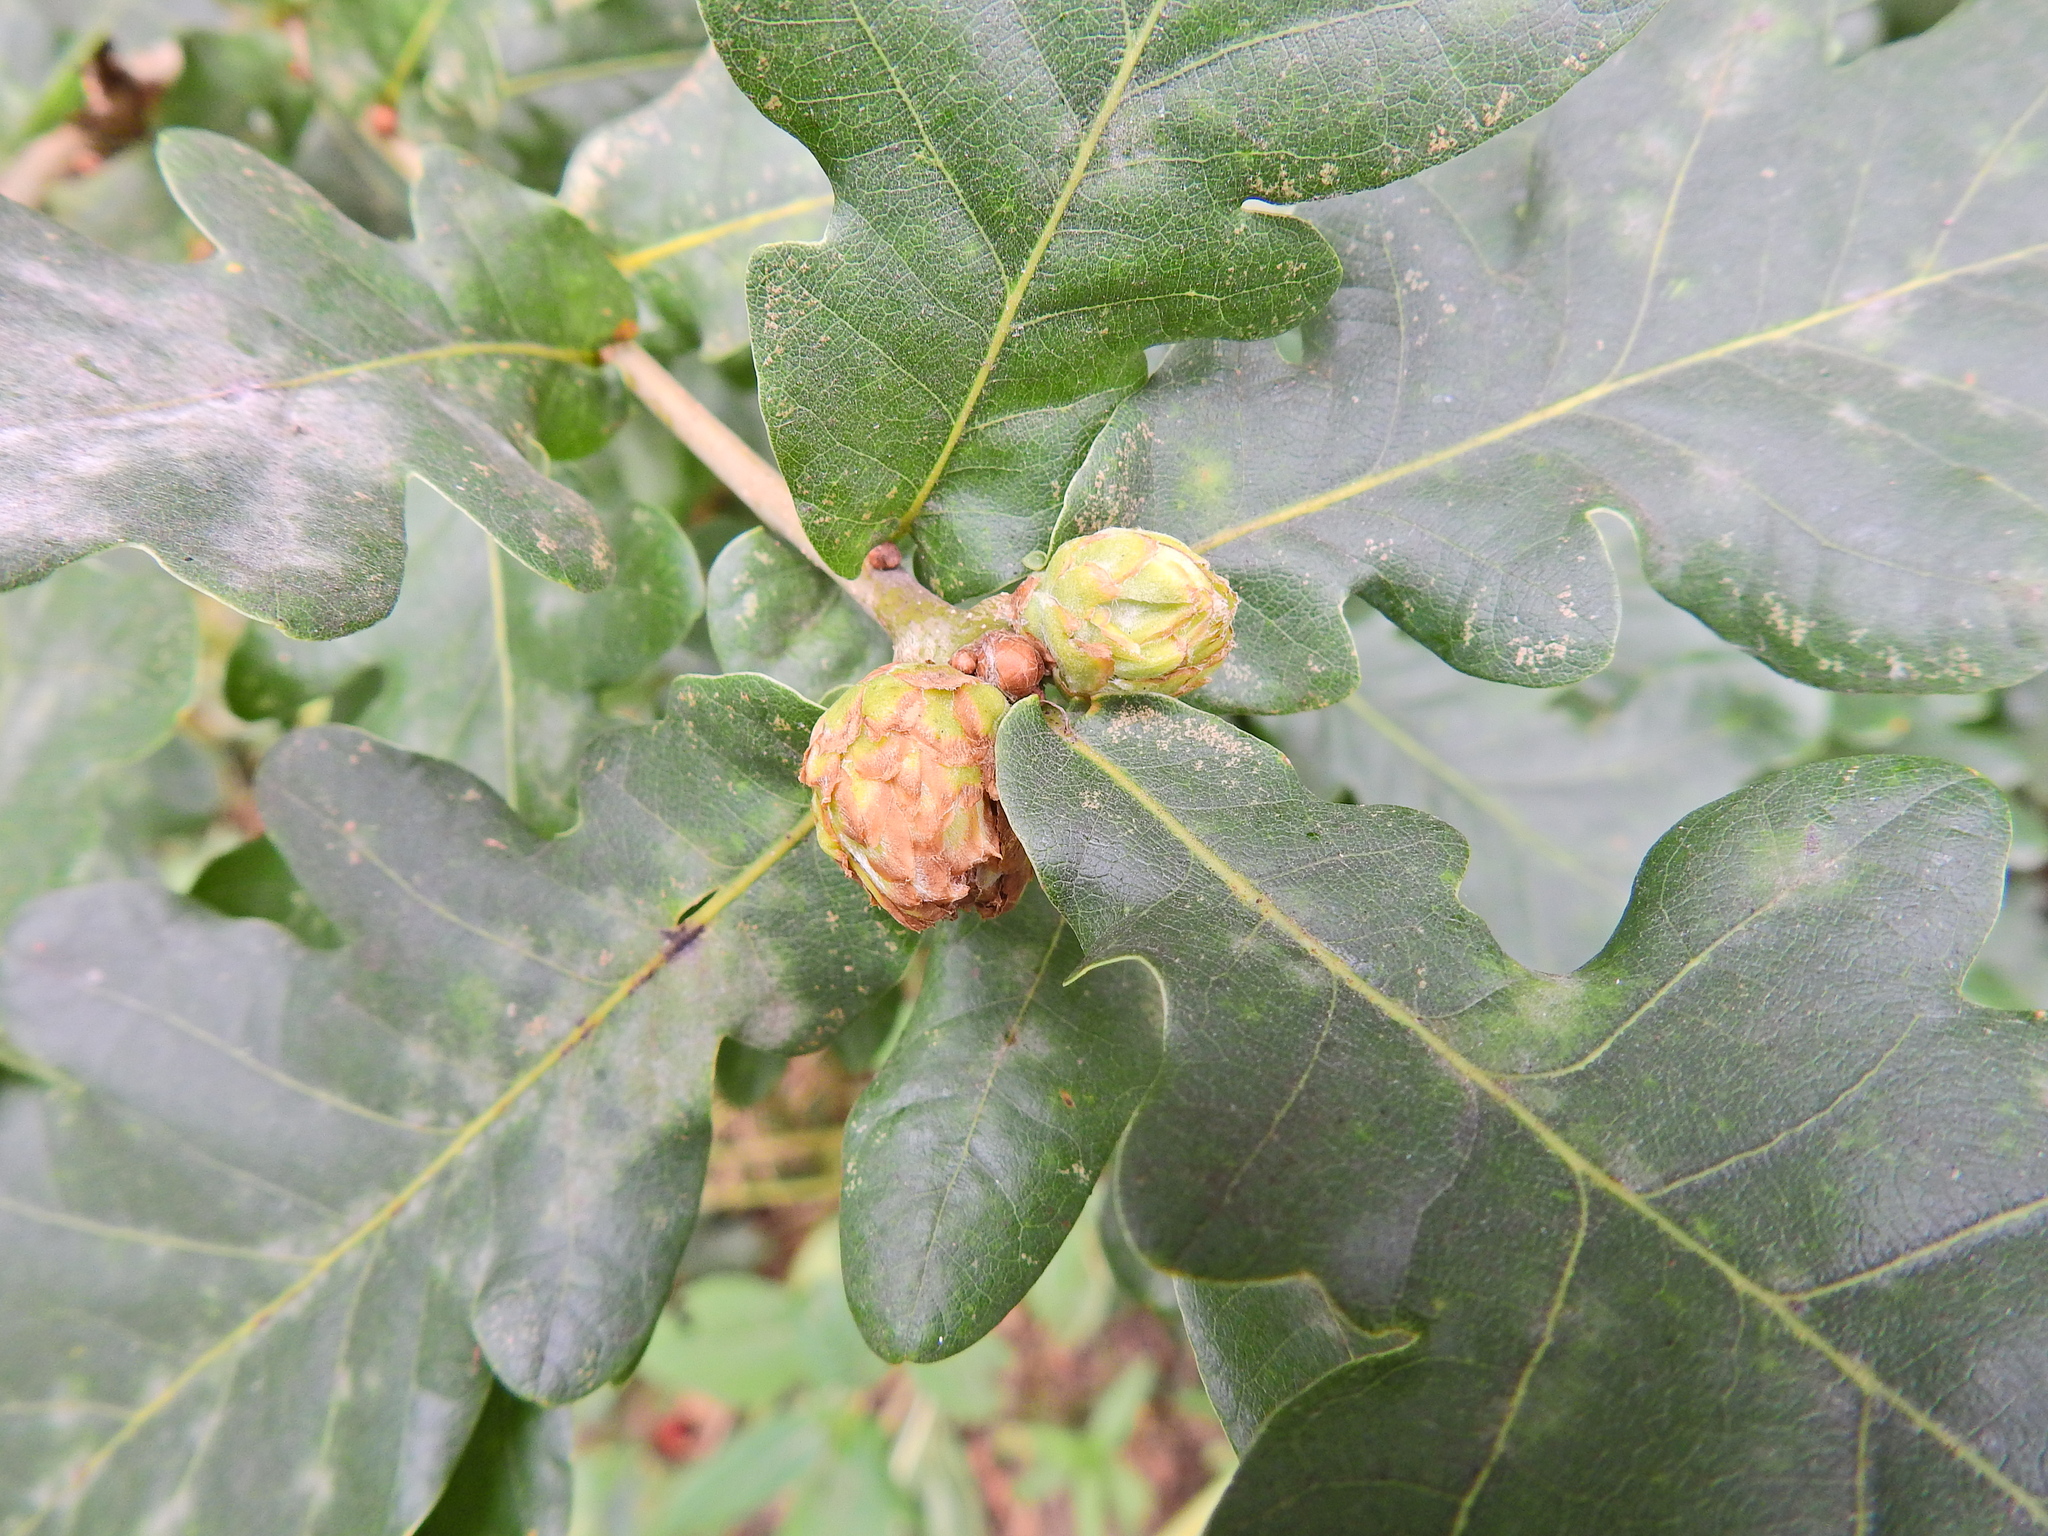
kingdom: Animalia
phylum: Arthropoda
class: Insecta
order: Hymenoptera
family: Cynipidae
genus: Andricus
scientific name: Andricus foecundatrix
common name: Artichoke gall
